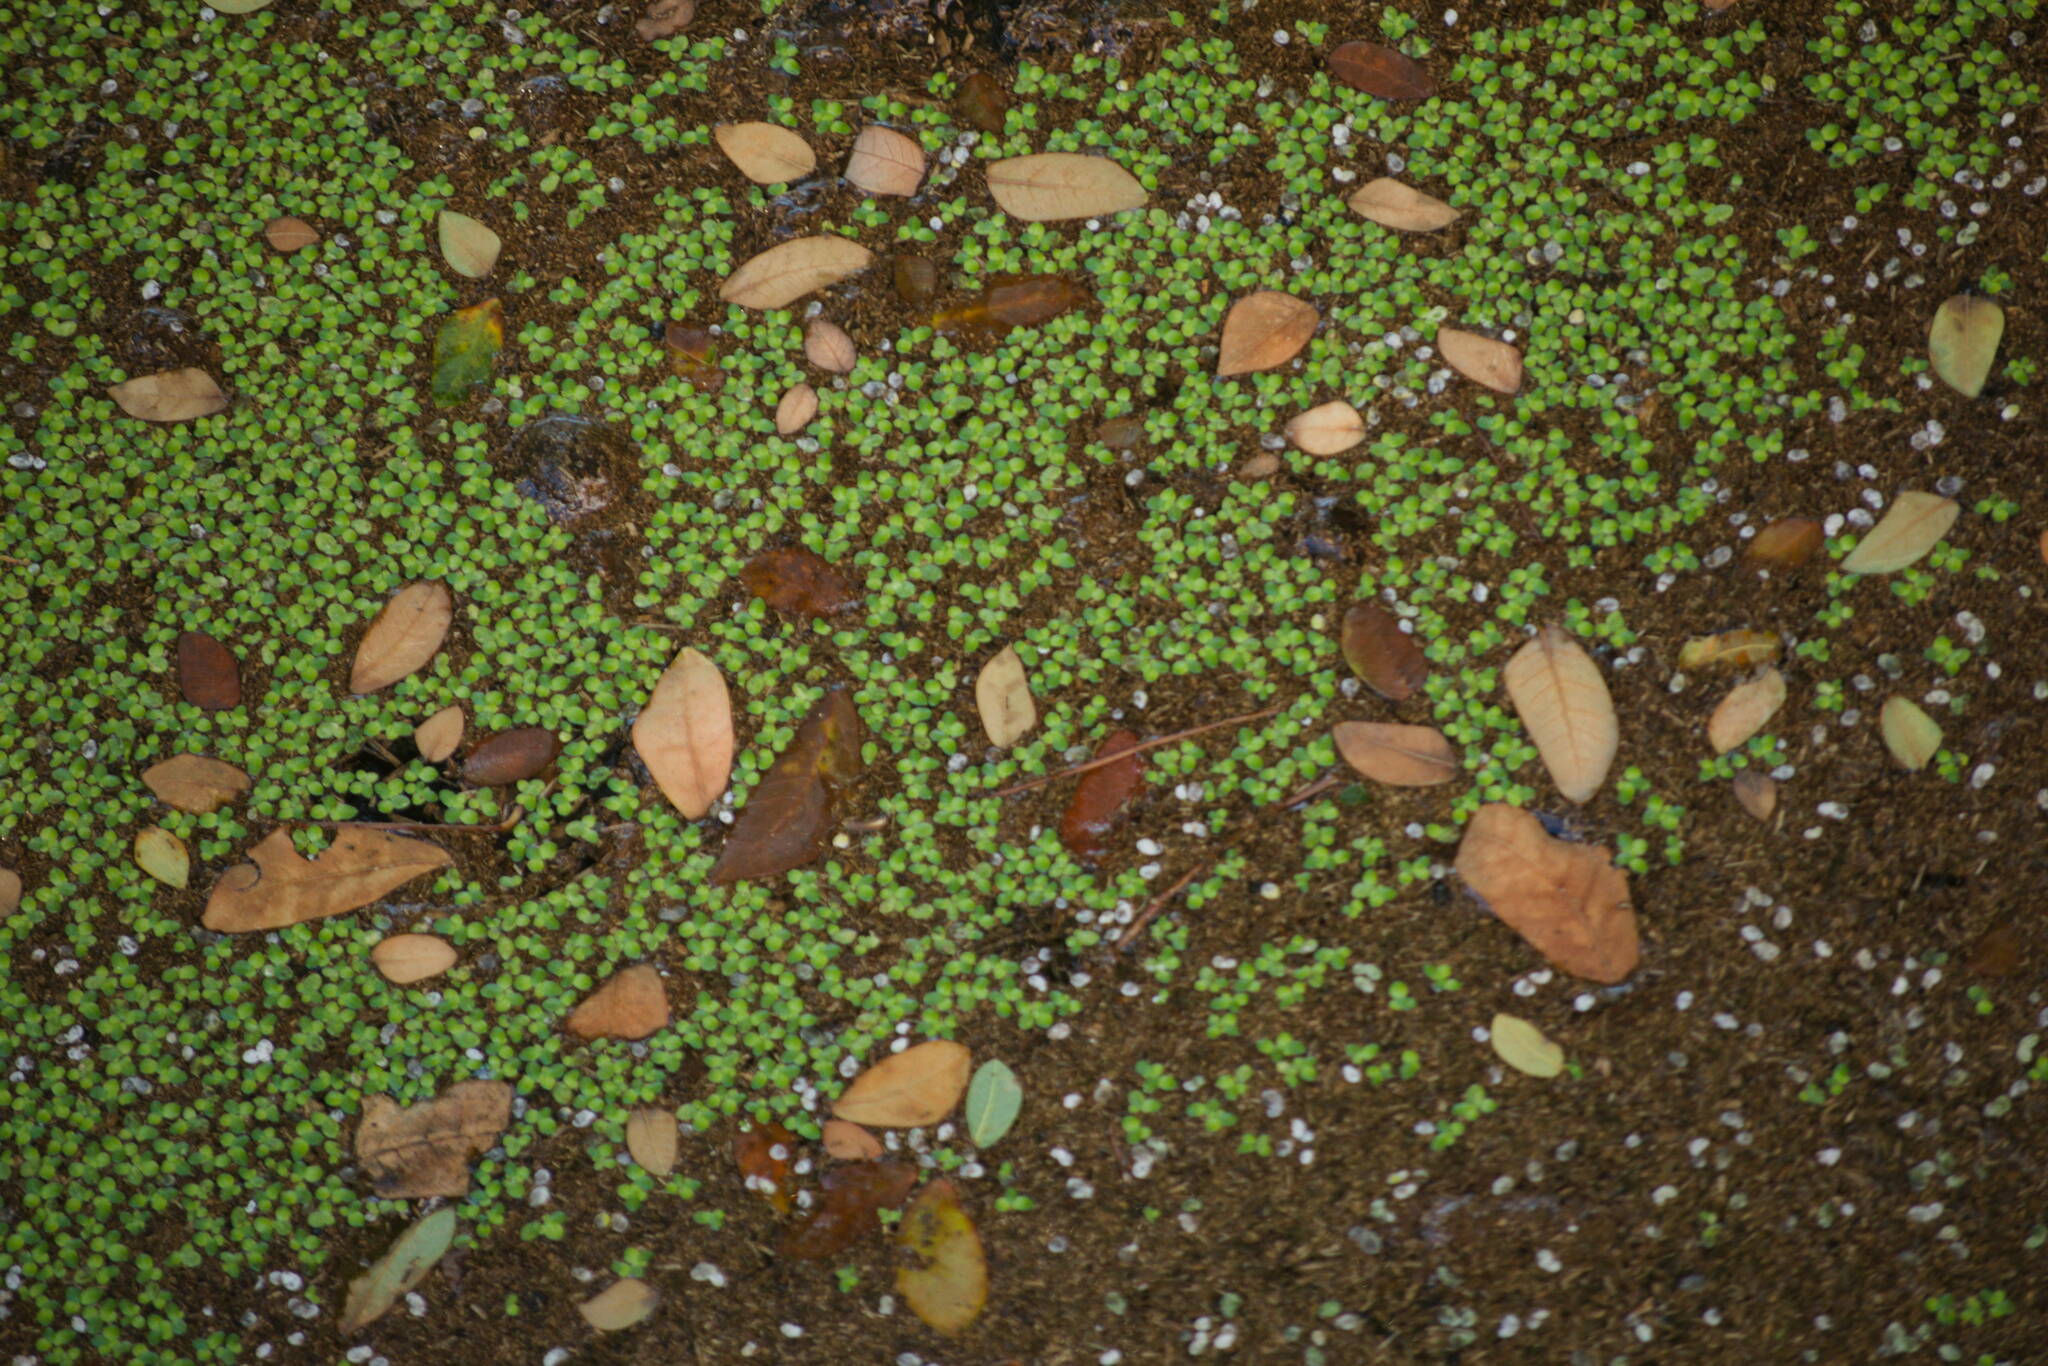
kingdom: Plantae
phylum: Tracheophyta
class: Liliopsida
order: Alismatales
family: Araceae
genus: Lemna
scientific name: Lemna aequinoctialis
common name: Duckweed
